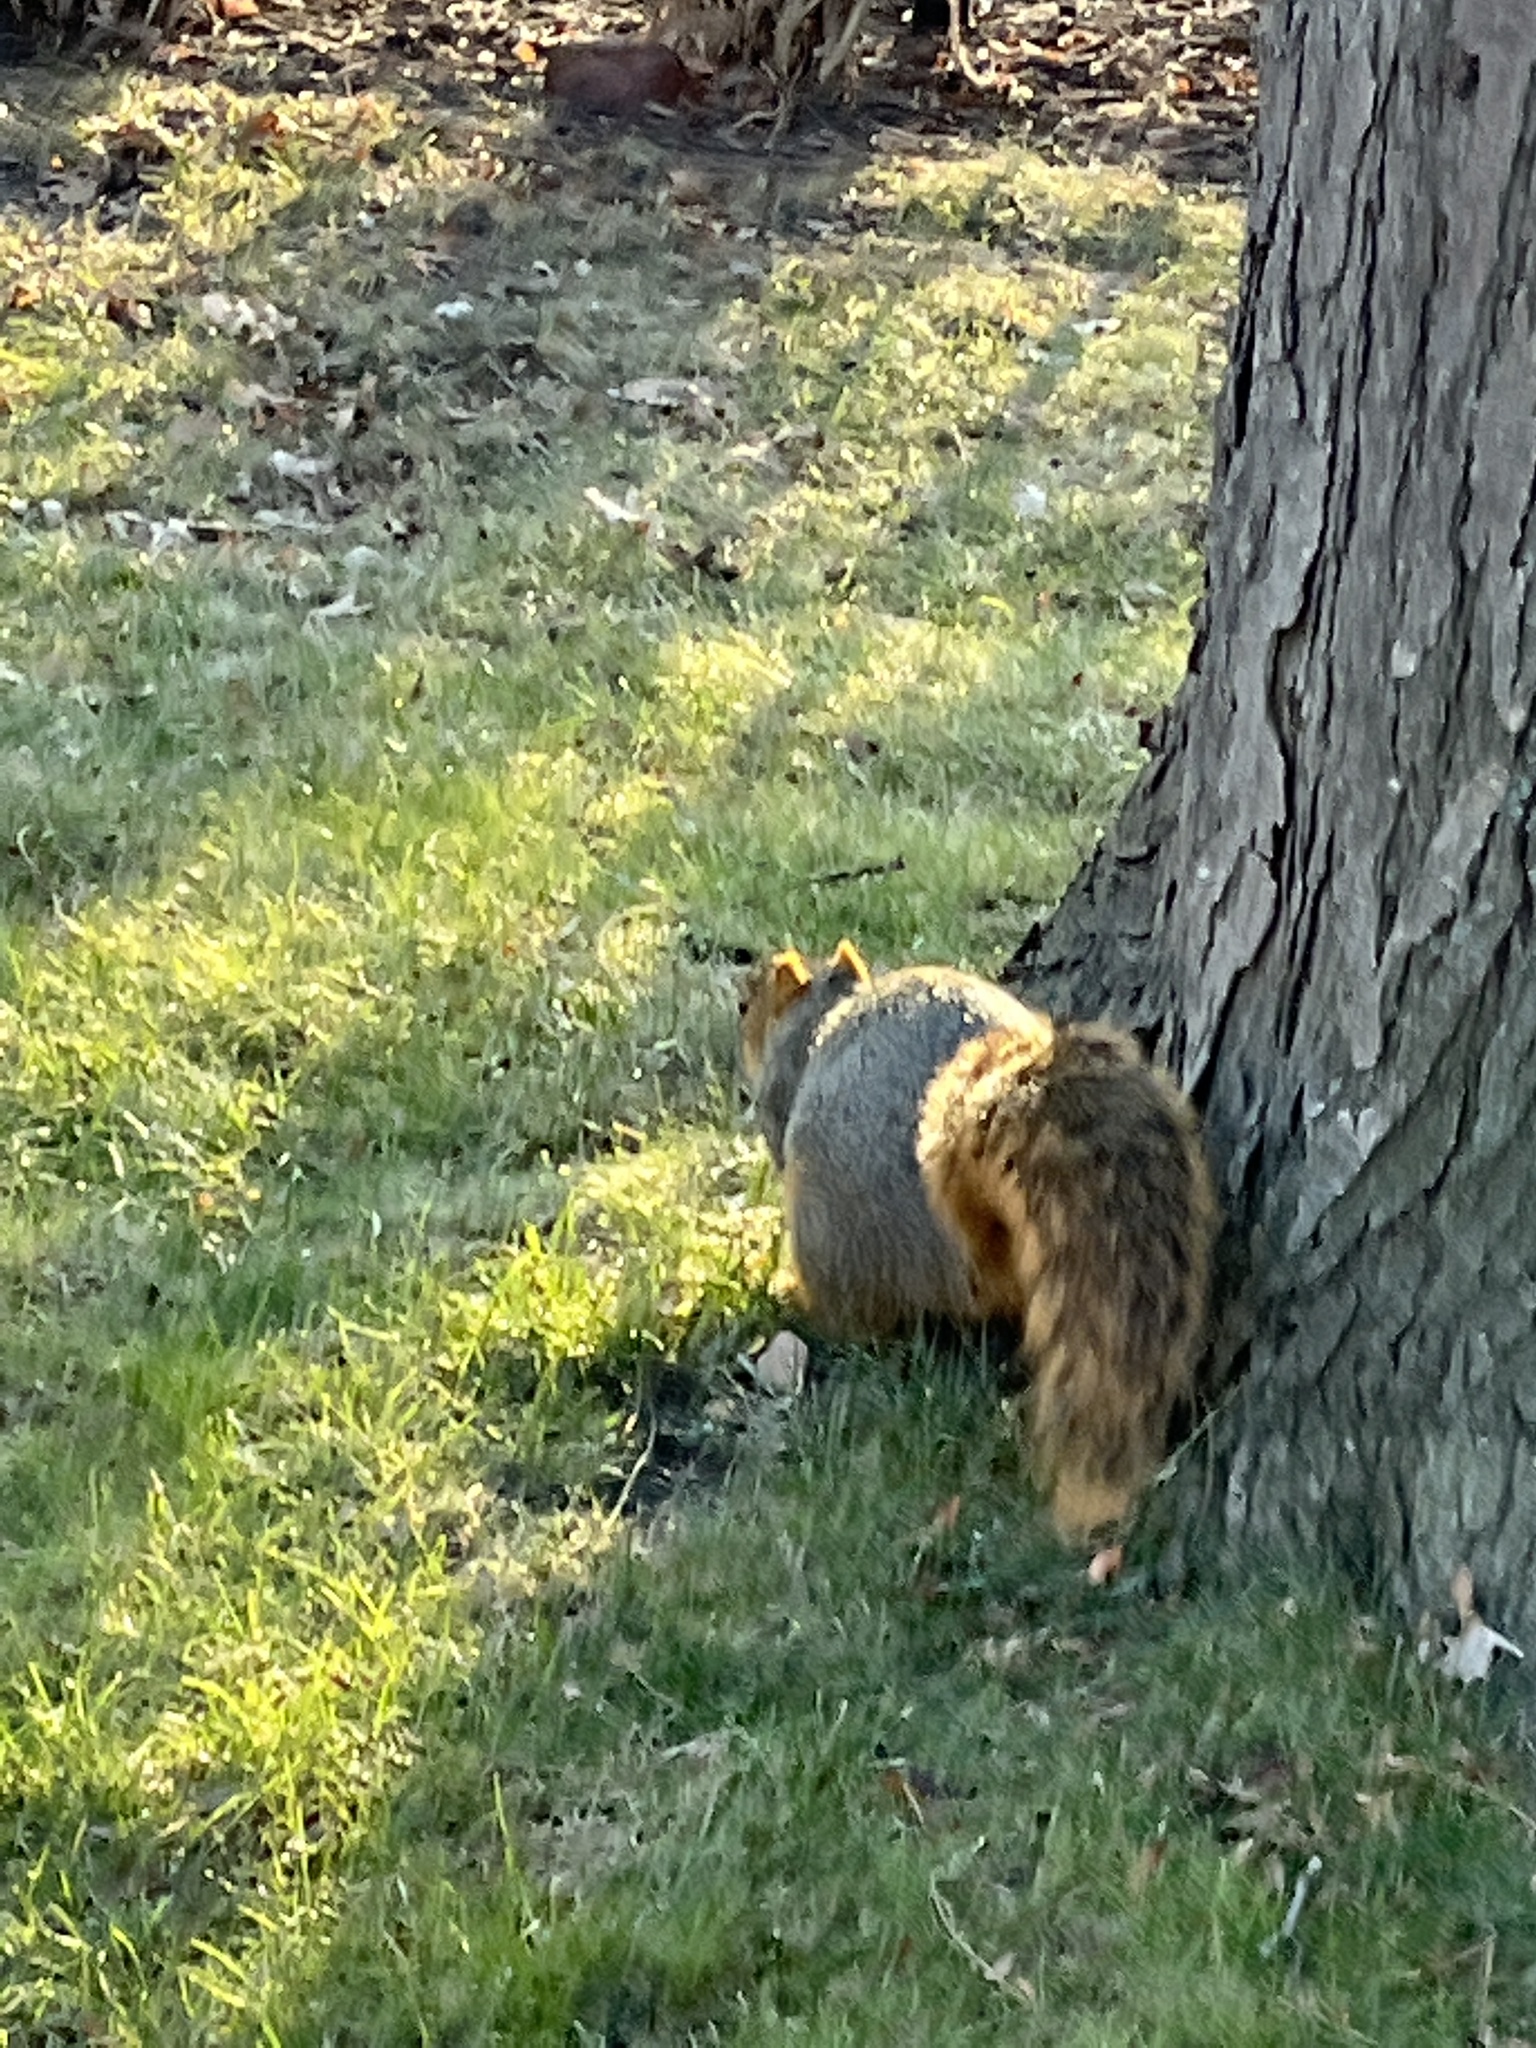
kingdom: Animalia
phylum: Chordata
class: Mammalia
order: Rodentia
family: Sciuridae
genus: Sciurus
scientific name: Sciurus niger
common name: Fox squirrel
